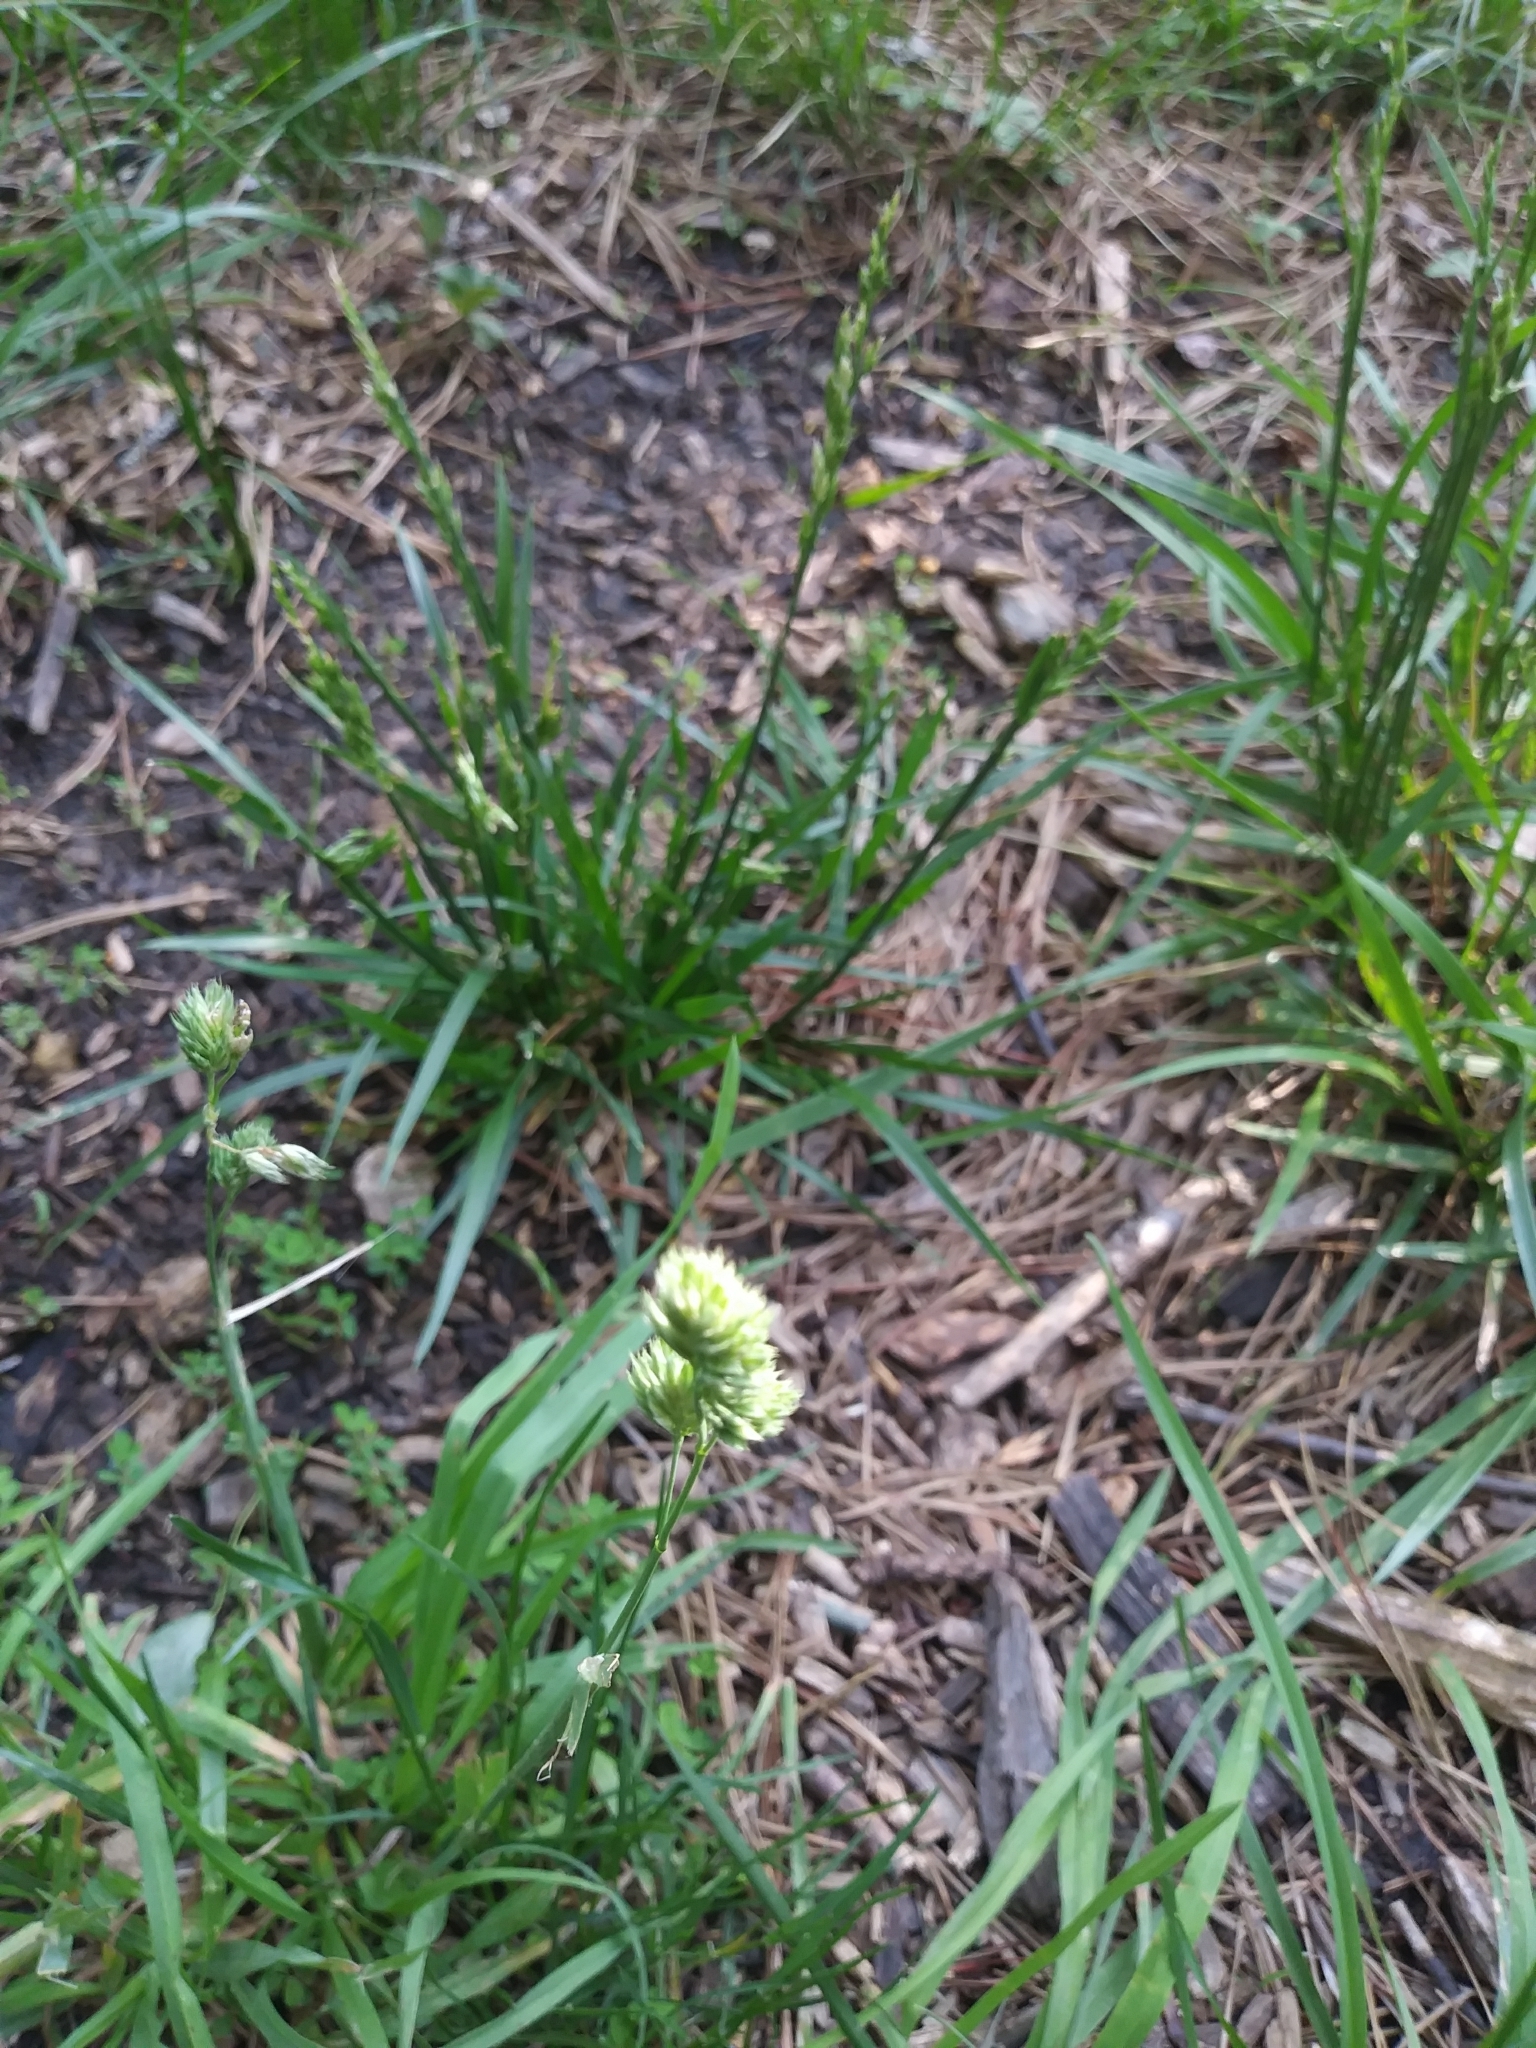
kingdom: Plantae
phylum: Tracheophyta
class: Liliopsida
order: Poales
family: Poaceae
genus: Dactylis
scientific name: Dactylis glomerata
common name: Orchardgrass
